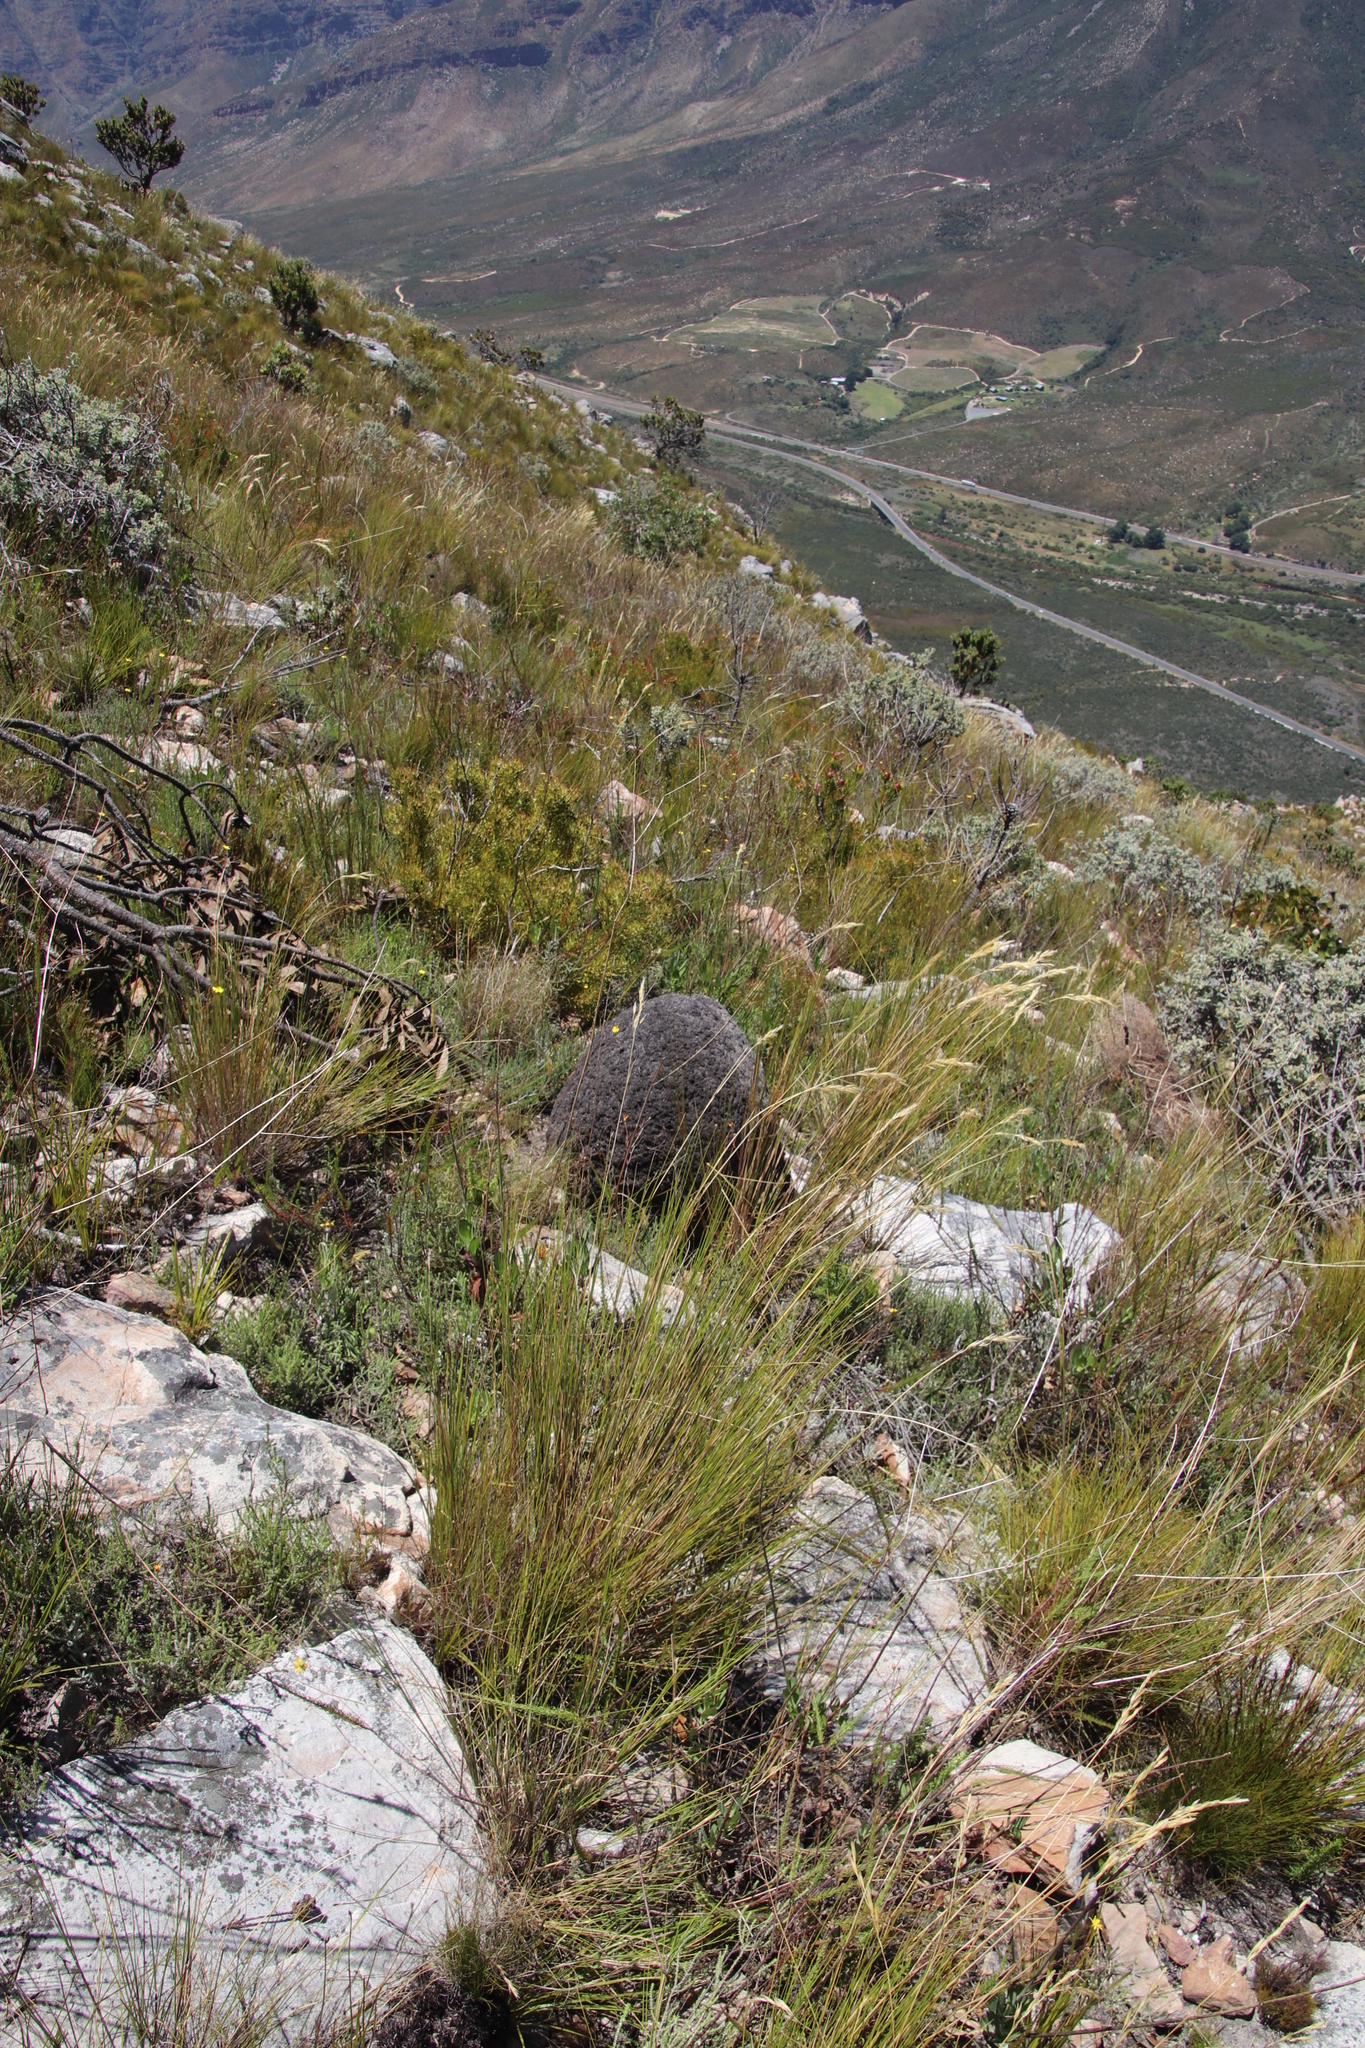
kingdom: Animalia
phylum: Arthropoda
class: Insecta
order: Blattodea
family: Termitidae
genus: Amitermes
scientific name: Amitermes hastatus
